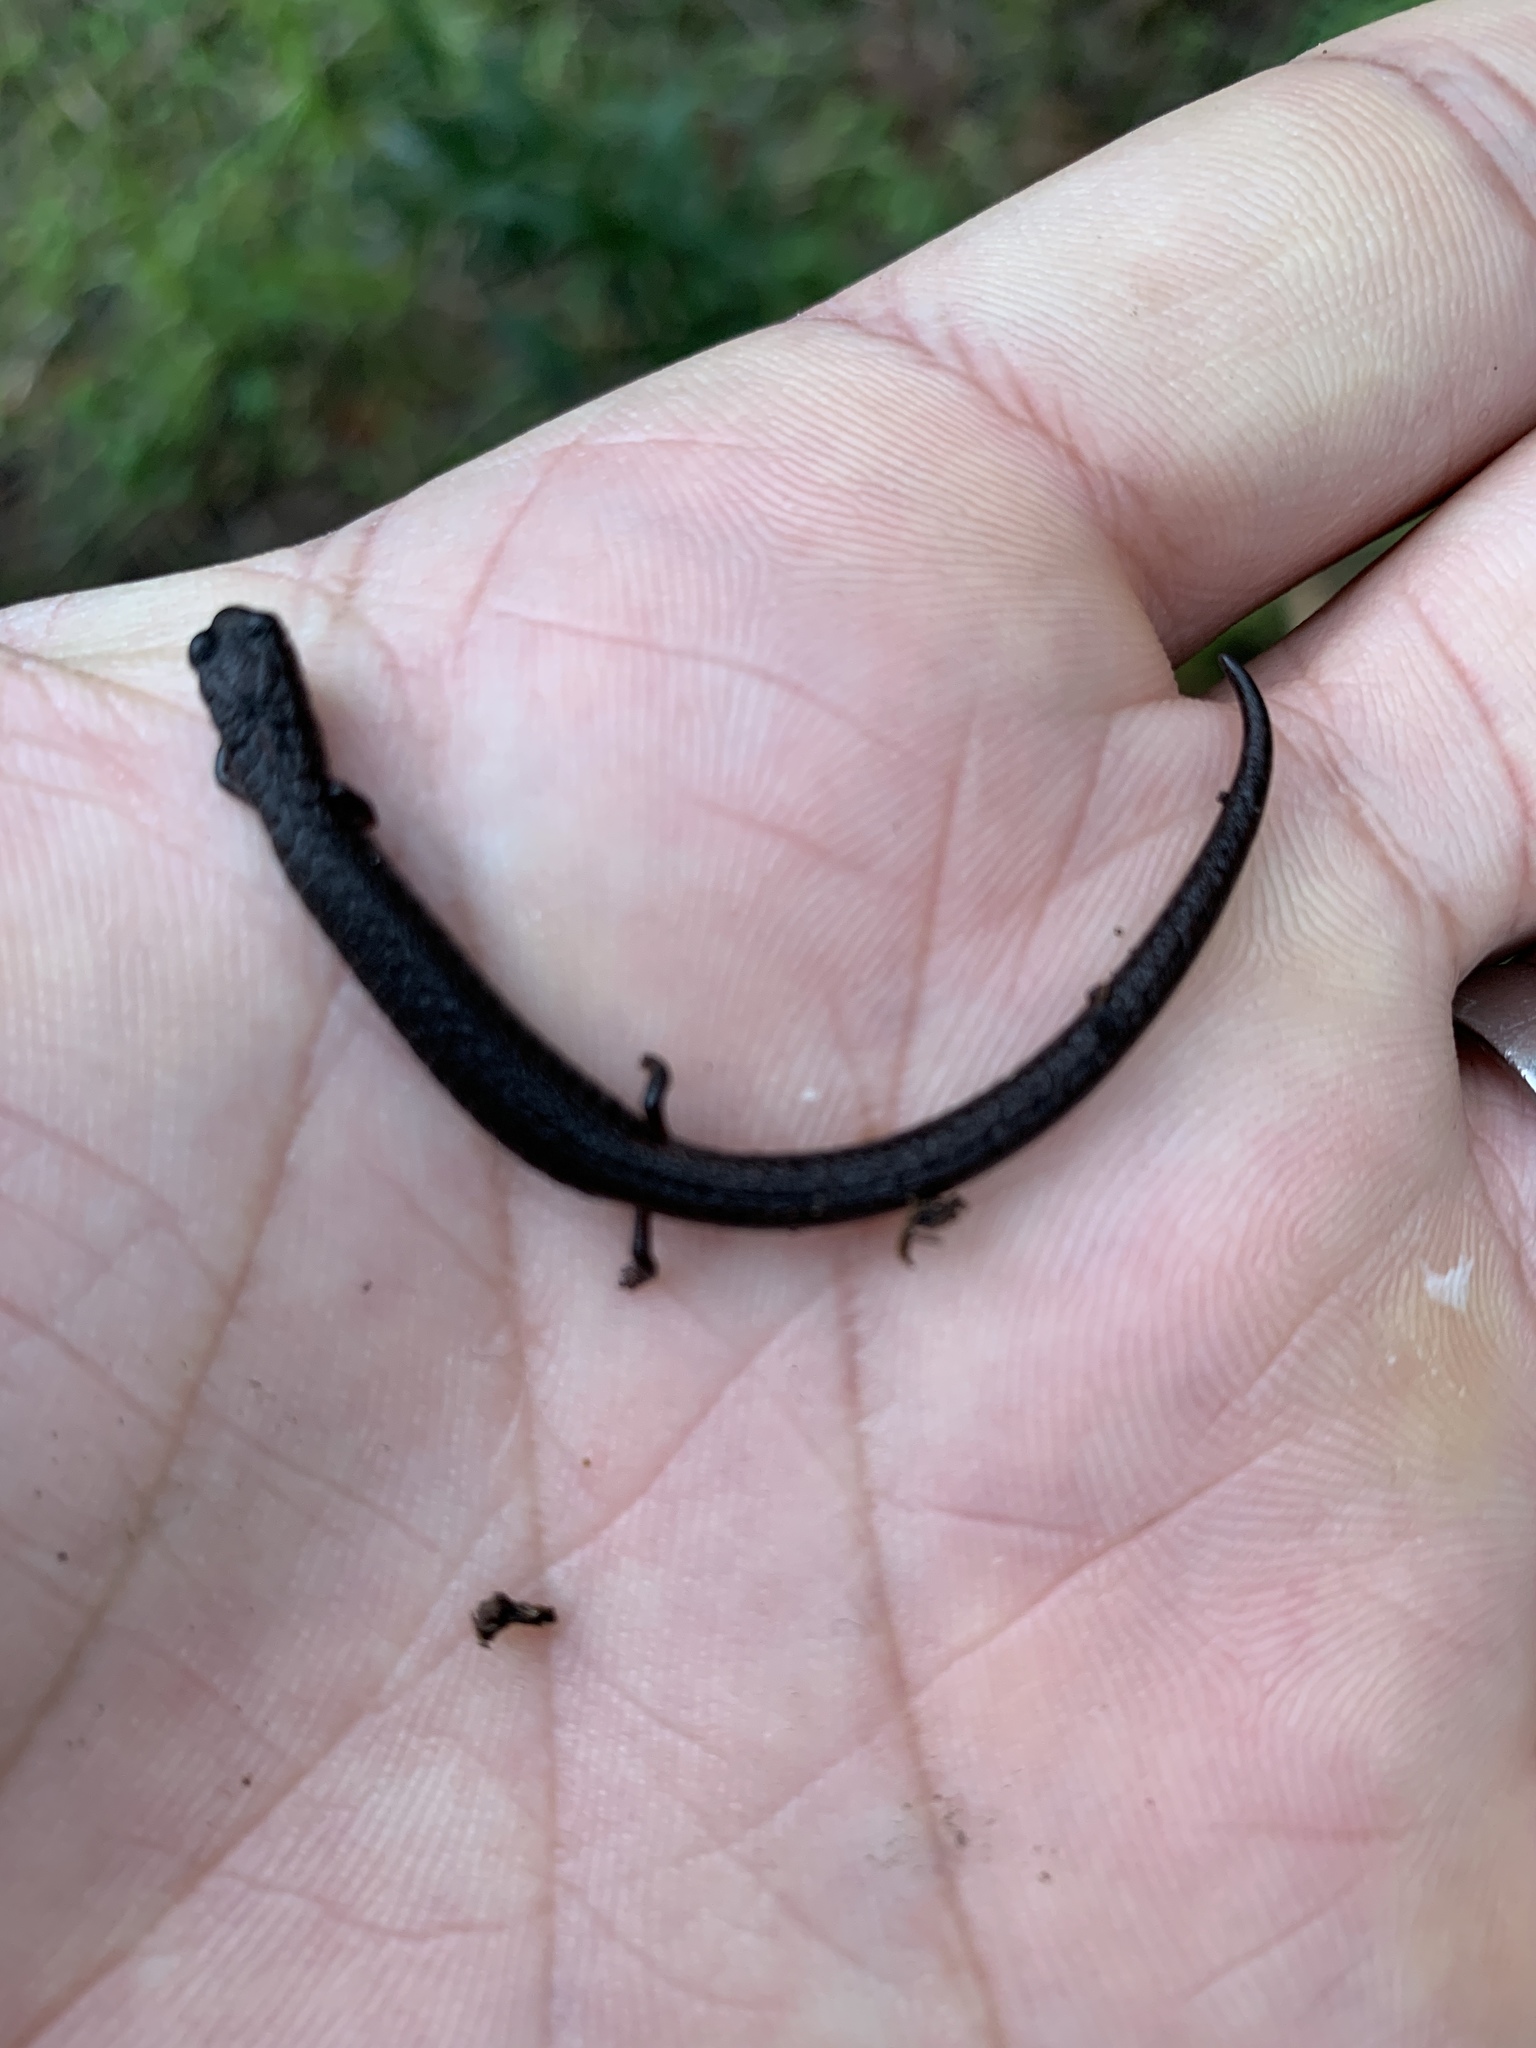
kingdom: Animalia
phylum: Chordata
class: Amphibia
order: Caudata
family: Plethodontidae
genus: Batrachoseps
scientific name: Batrachoseps attenuatus
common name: California slender salamander
